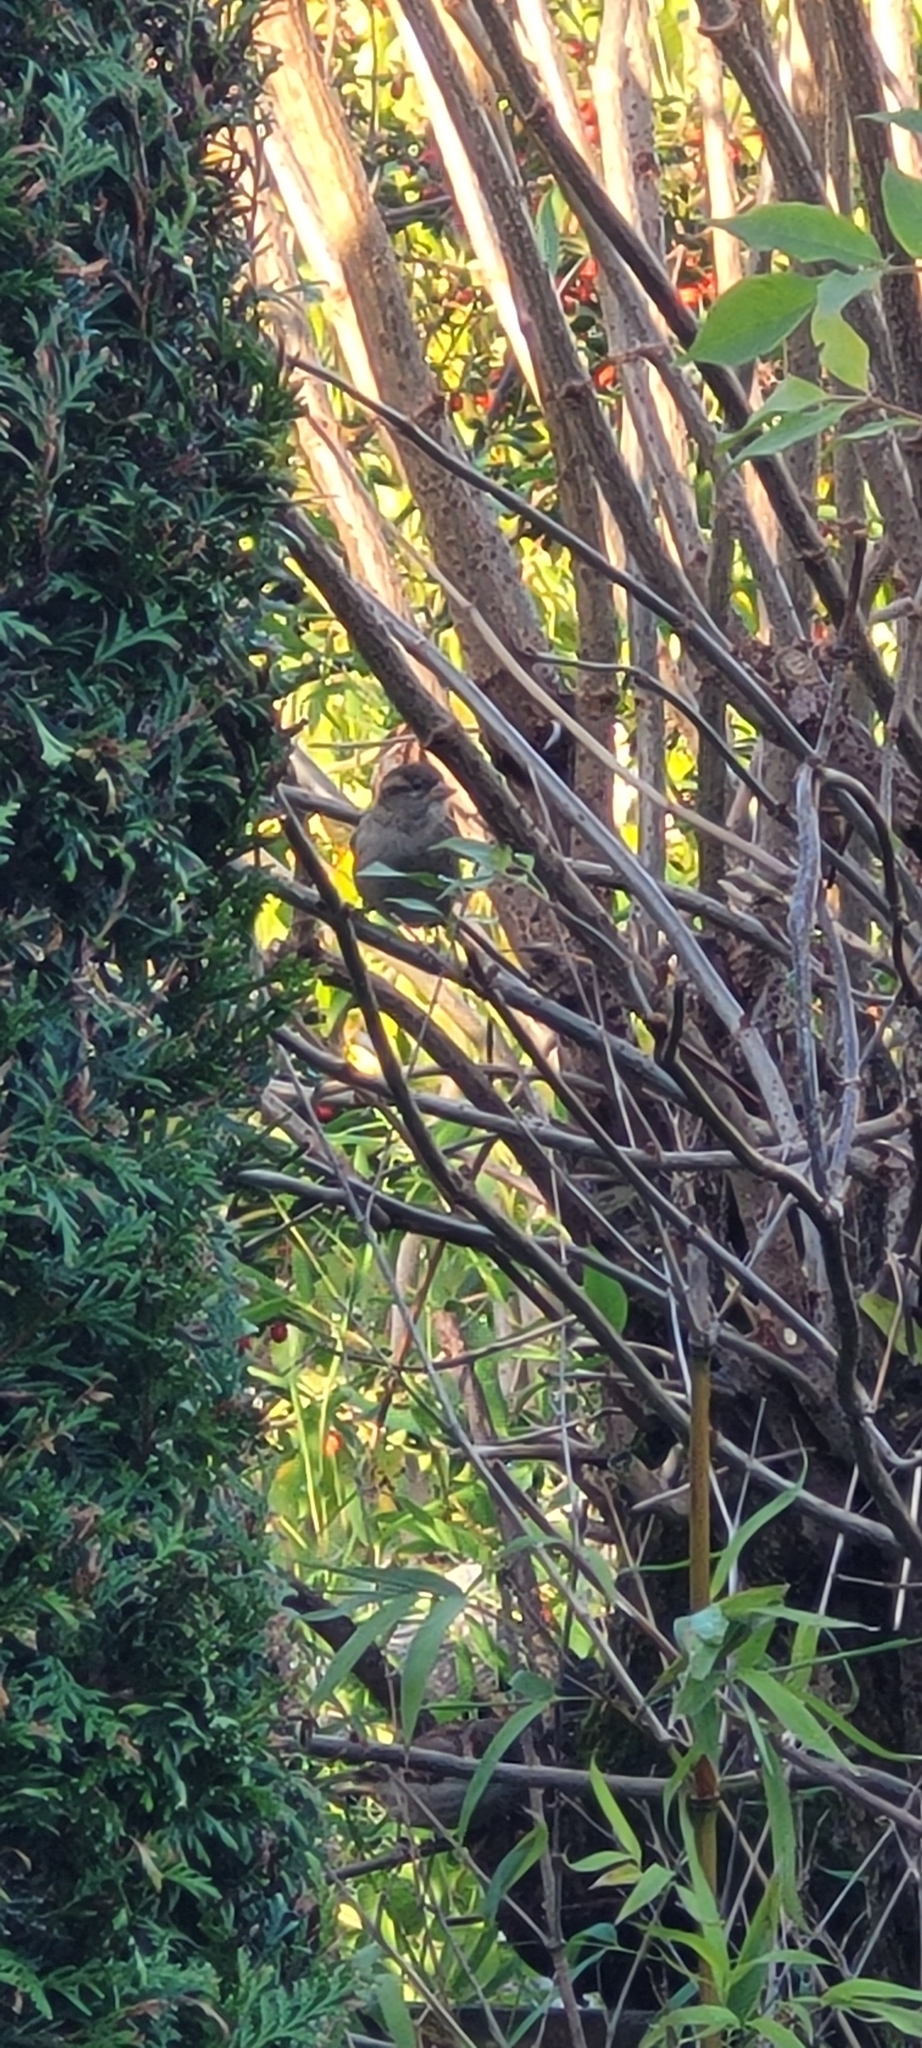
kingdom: Animalia
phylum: Chordata
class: Aves
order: Passeriformes
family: Passeridae
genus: Passer
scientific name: Passer domesticus
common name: House sparrow
